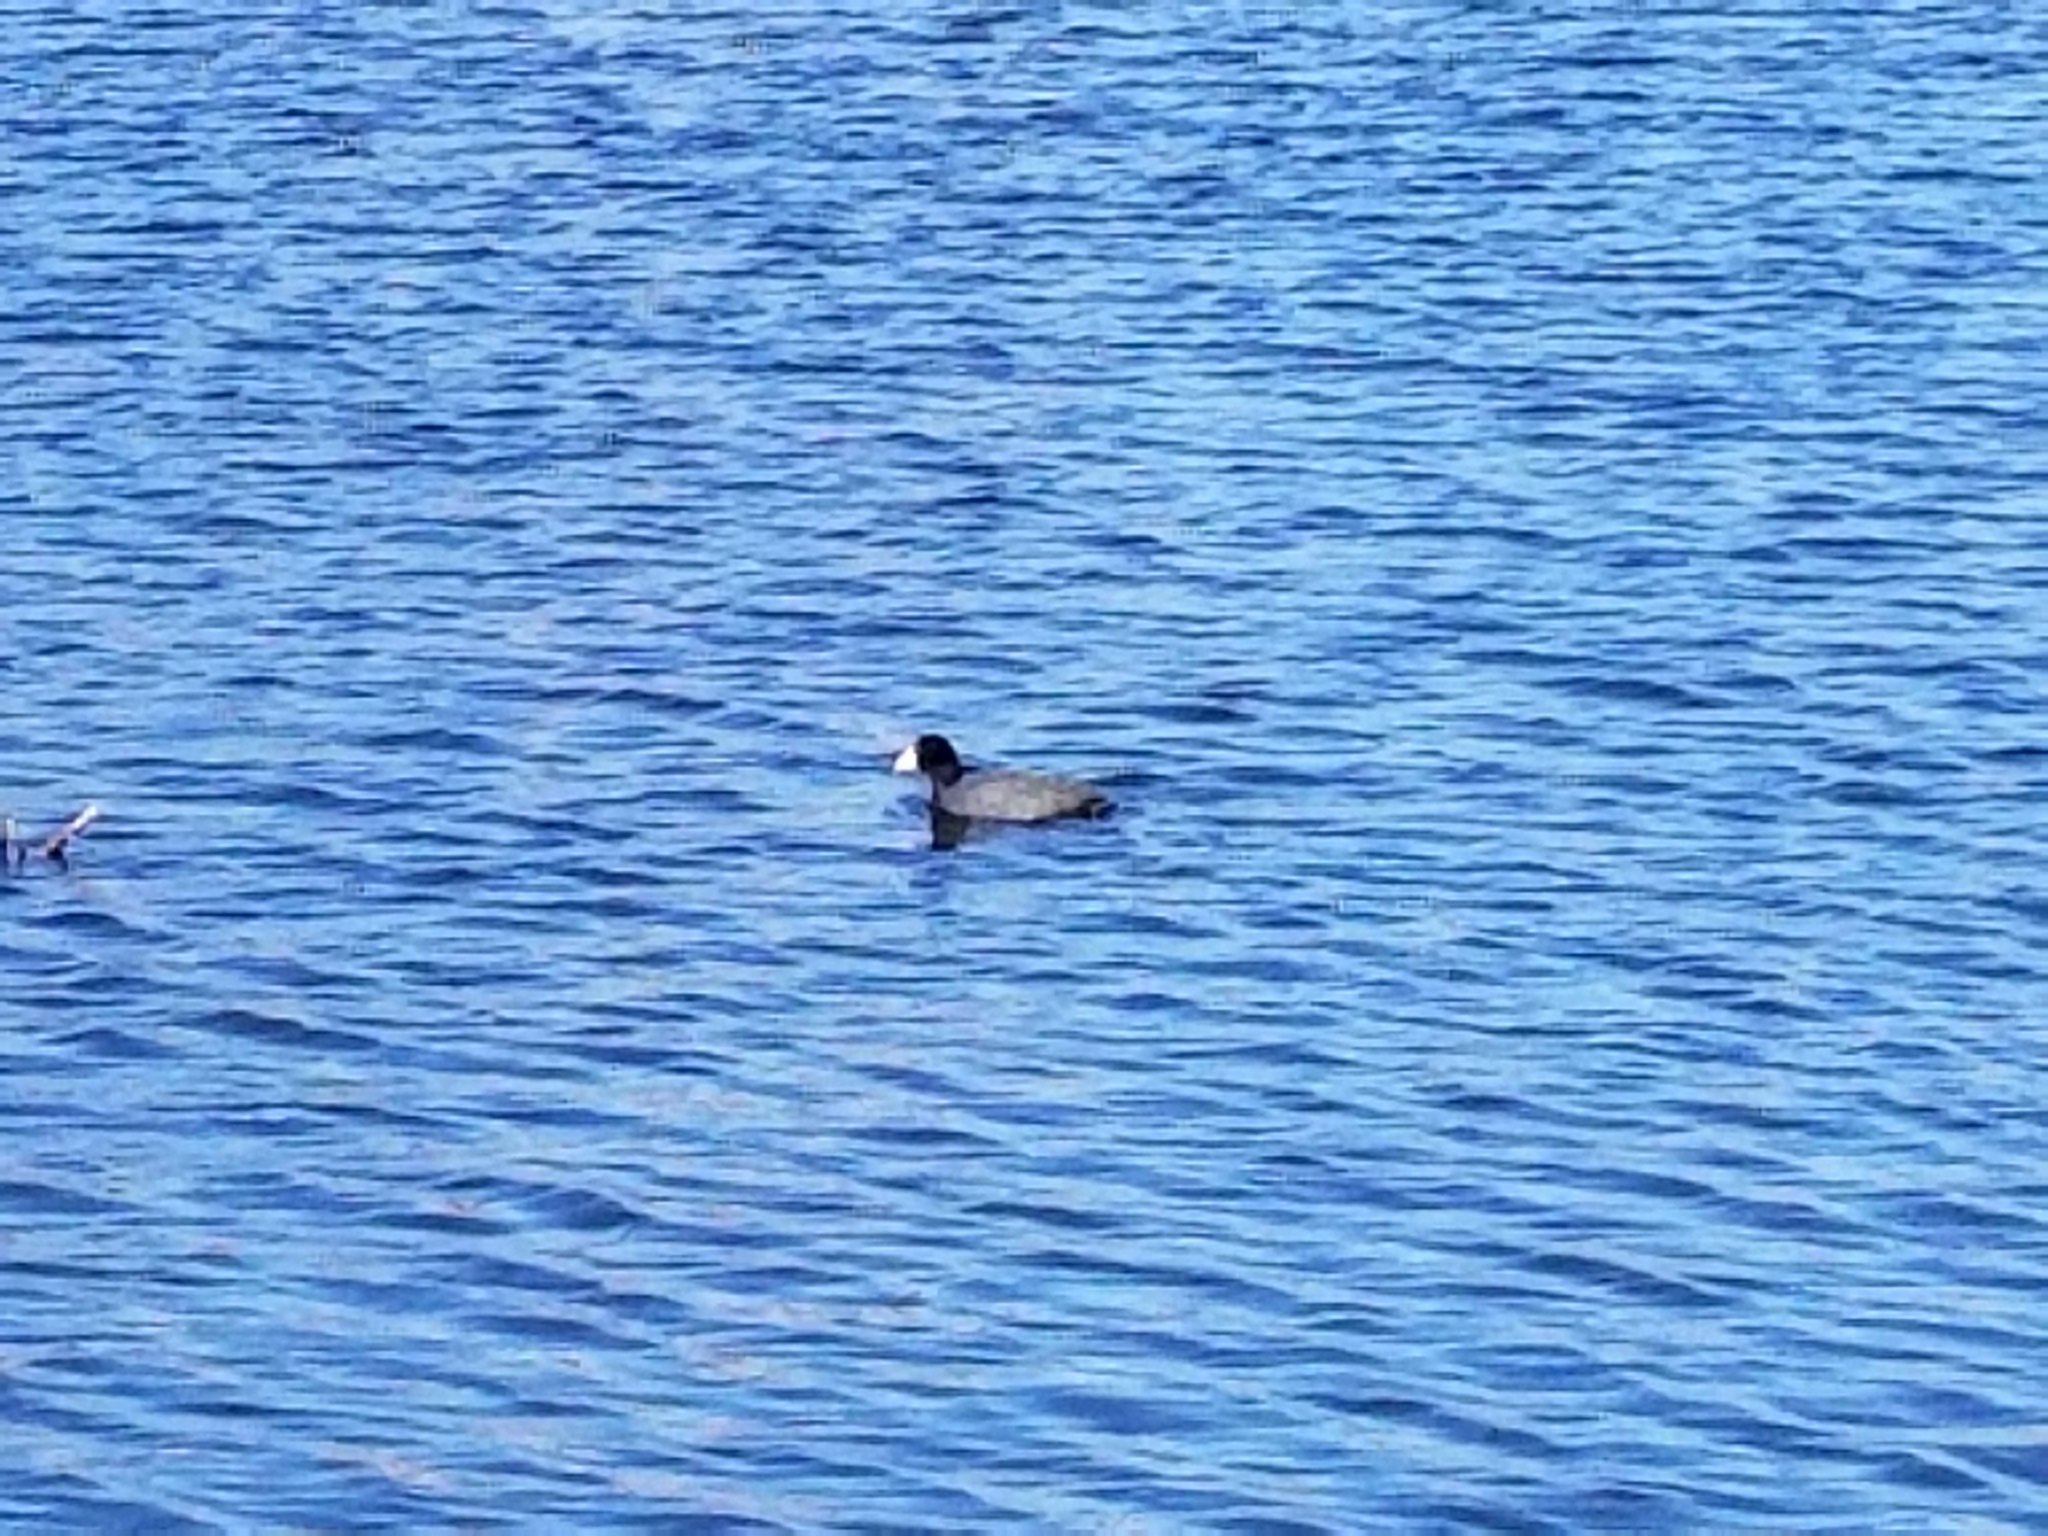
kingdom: Animalia
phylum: Chordata
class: Aves
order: Gruiformes
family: Rallidae
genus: Fulica
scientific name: Fulica americana
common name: American coot
